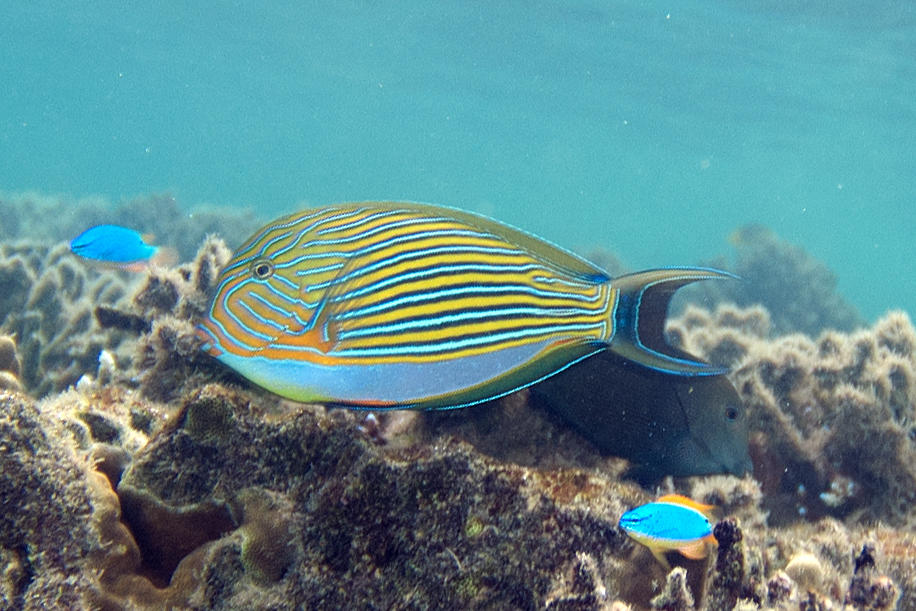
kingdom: Animalia
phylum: Chordata
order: Perciformes
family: Acanthuridae
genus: Acanthurus
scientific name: Acanthurus lineatus
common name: Striped surgeonfish
